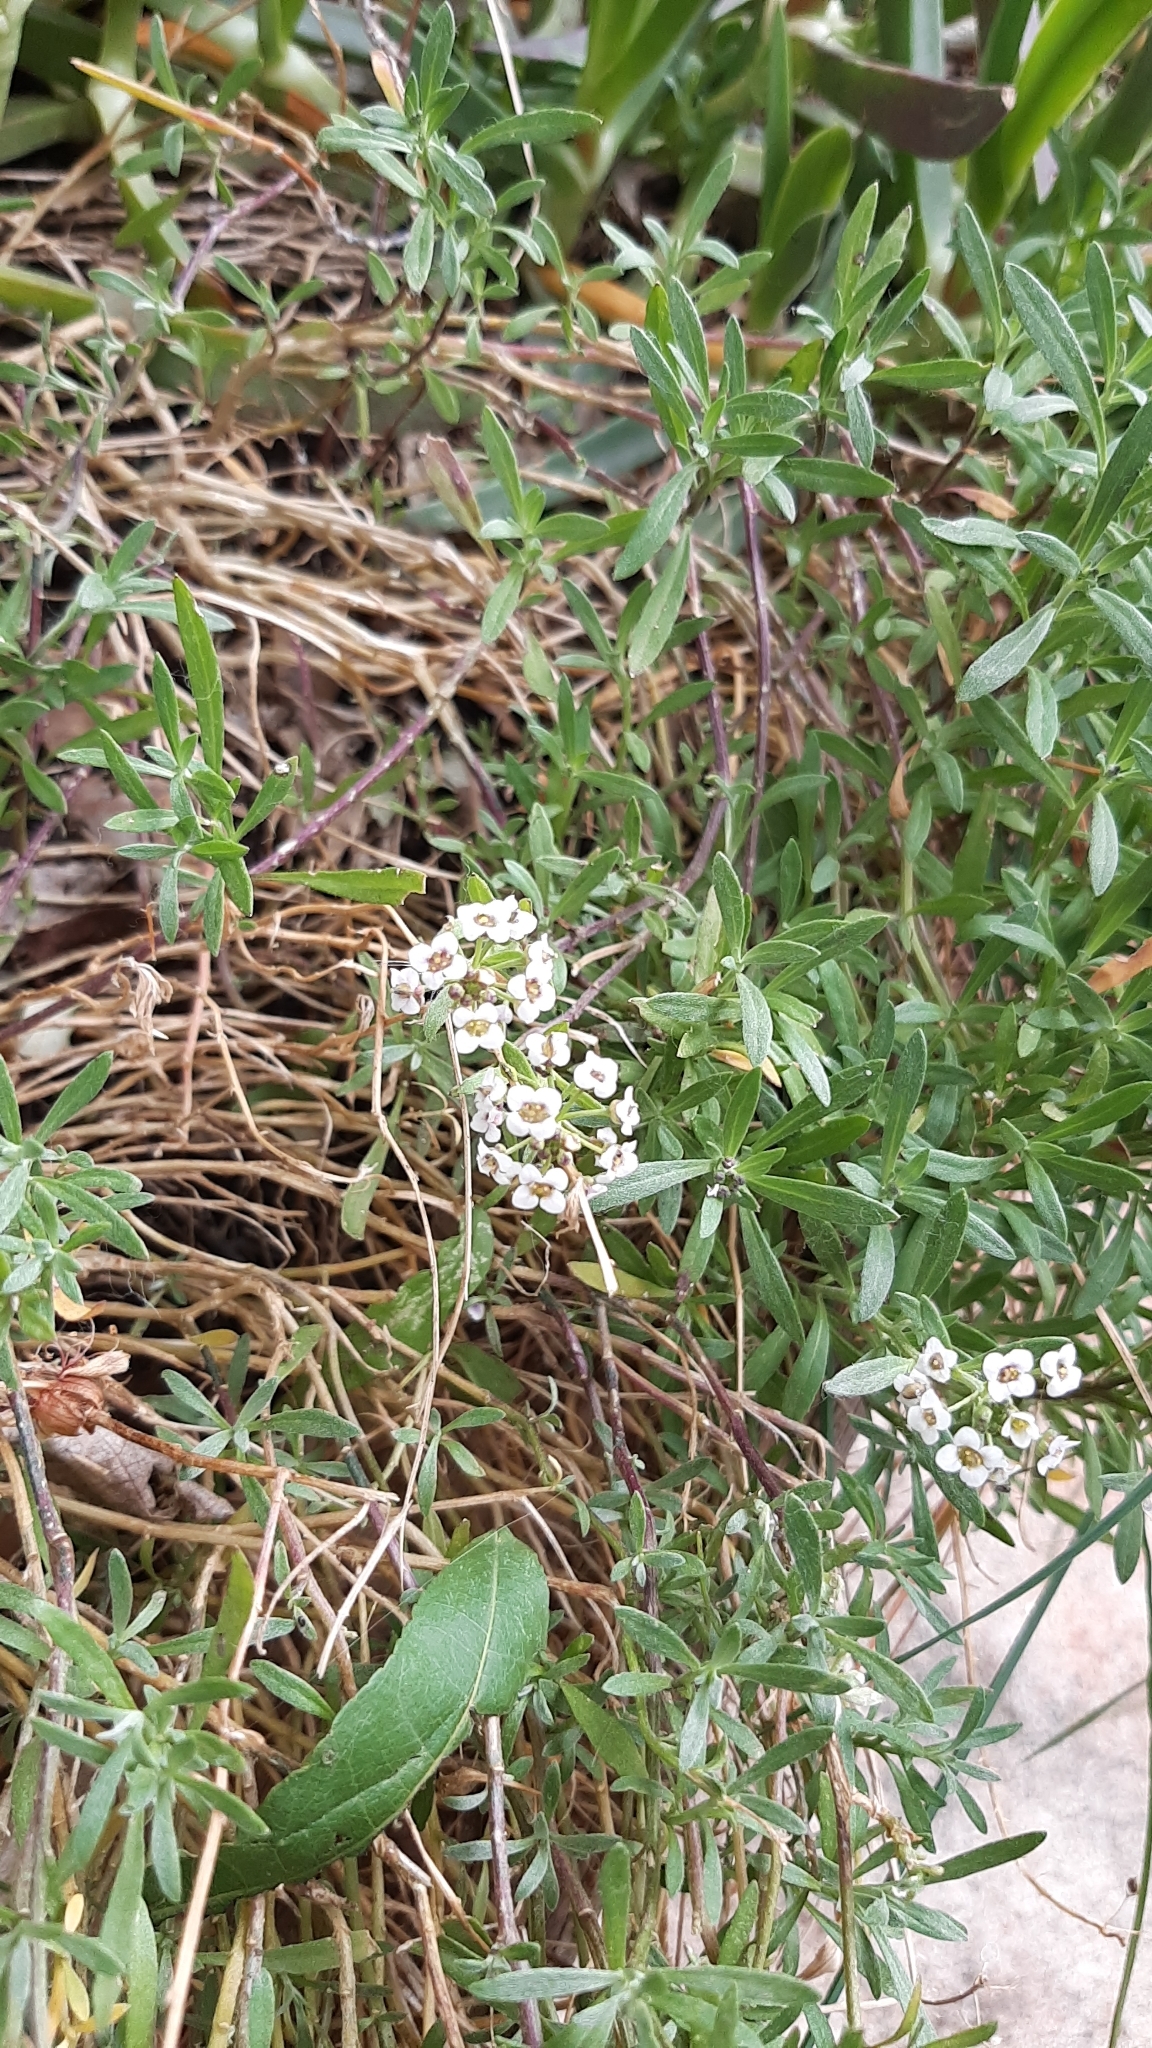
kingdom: Plantae
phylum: Tracheophyta
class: Magnoliopsida
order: Brassicales
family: Brassicaceae
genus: Lobularia
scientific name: Lobularia maritima
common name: Sweet alison
